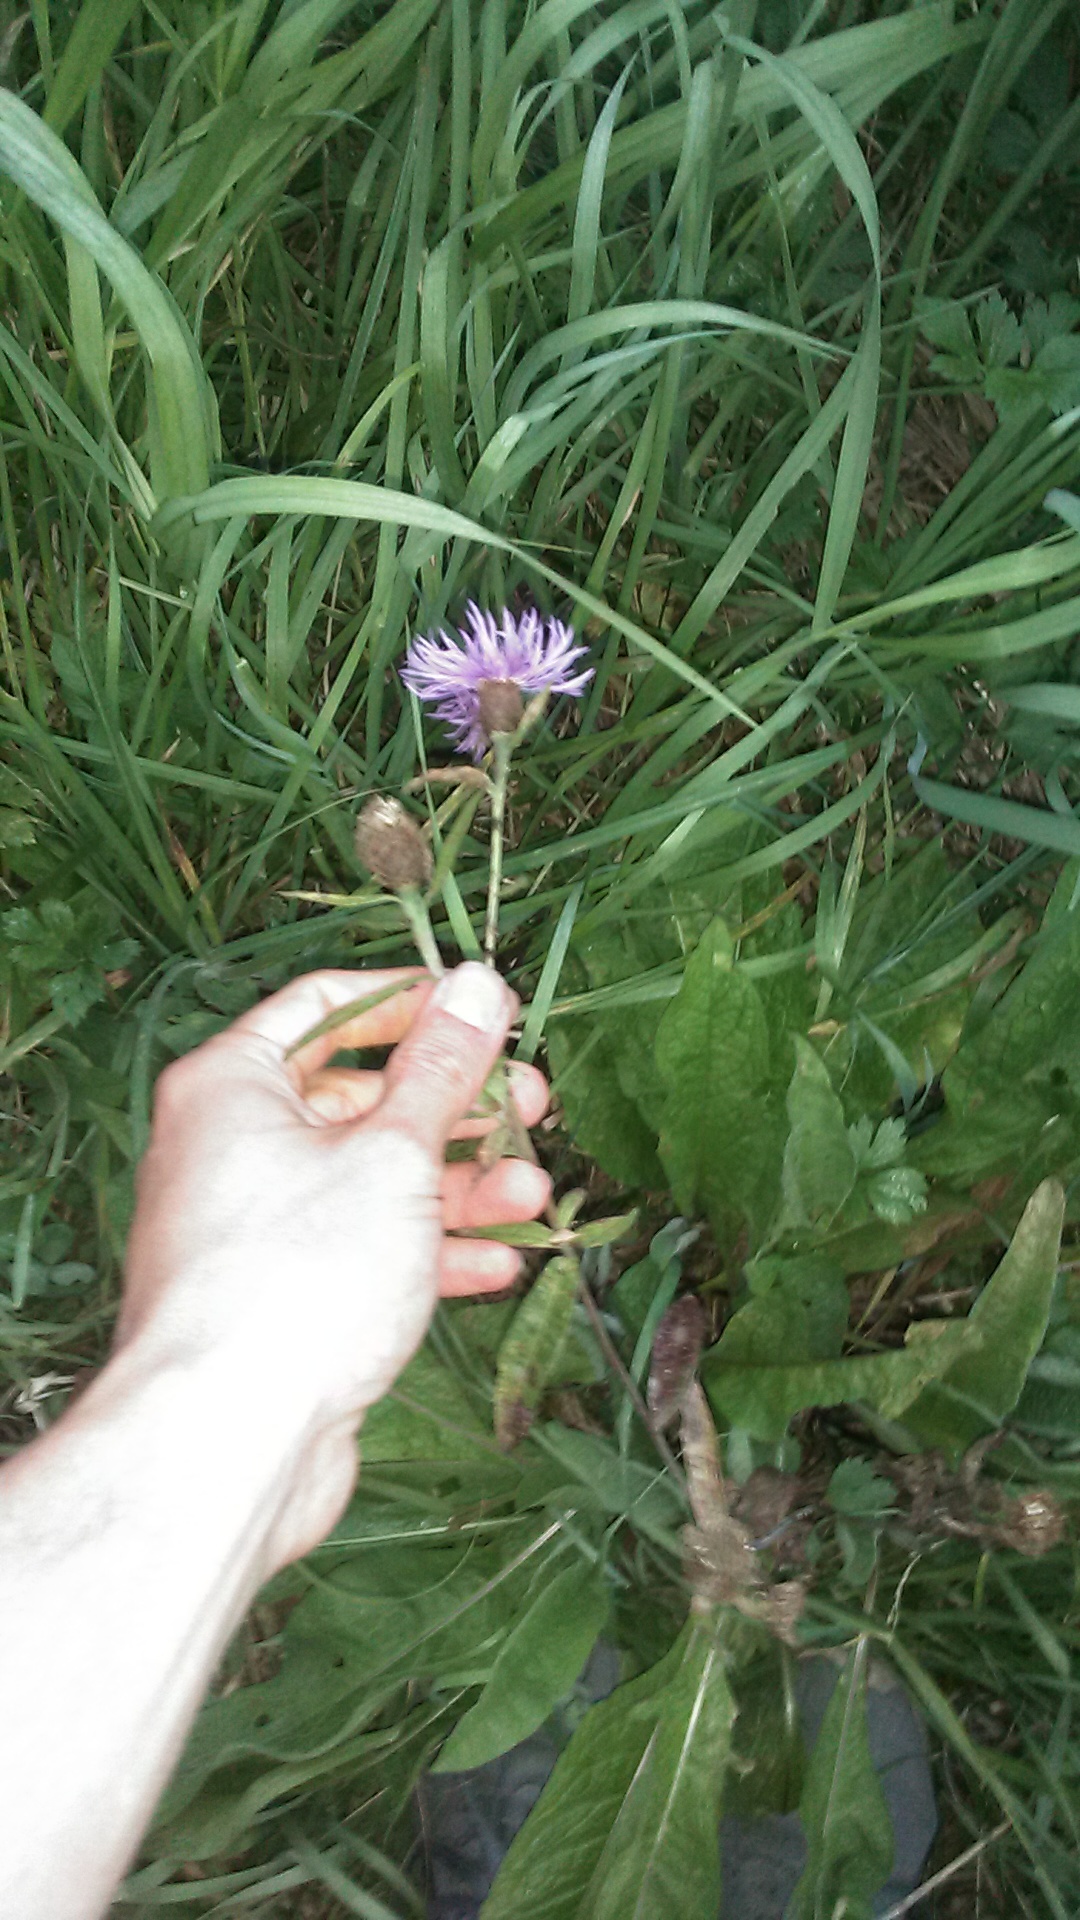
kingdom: Plantae
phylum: Tracheophyta
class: Magnoliopsida
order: Asterales
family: Asteraceae
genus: Centaurea
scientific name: Centaurea phrygia
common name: Wig knapweed
